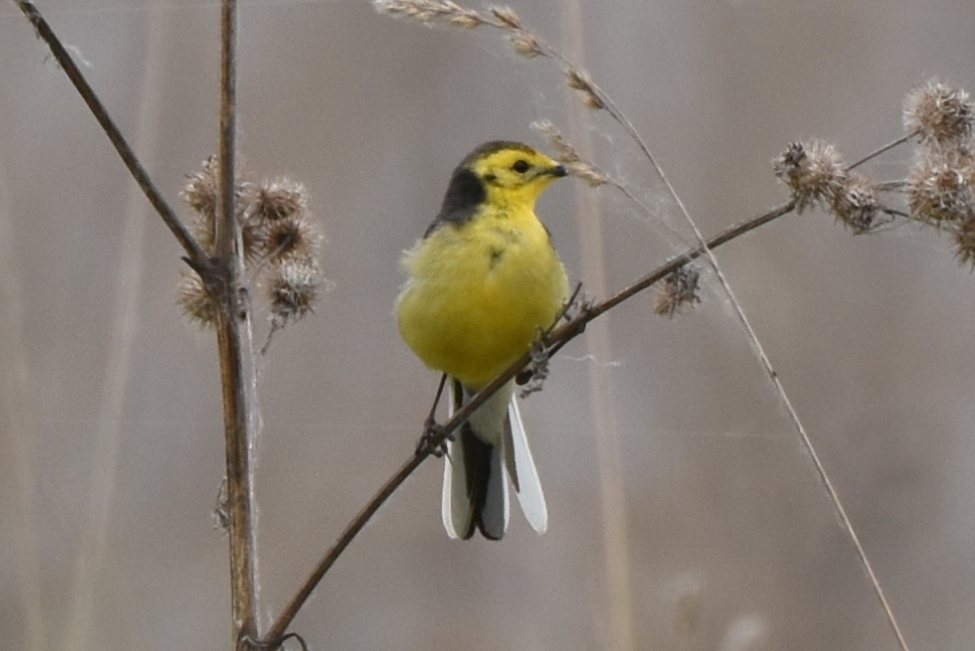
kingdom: Animalia
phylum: Chordata
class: Aves
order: Passeriformes
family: Motacillidae
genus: Motacilla
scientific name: Motacilla citreola
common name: Citrine wagtail
